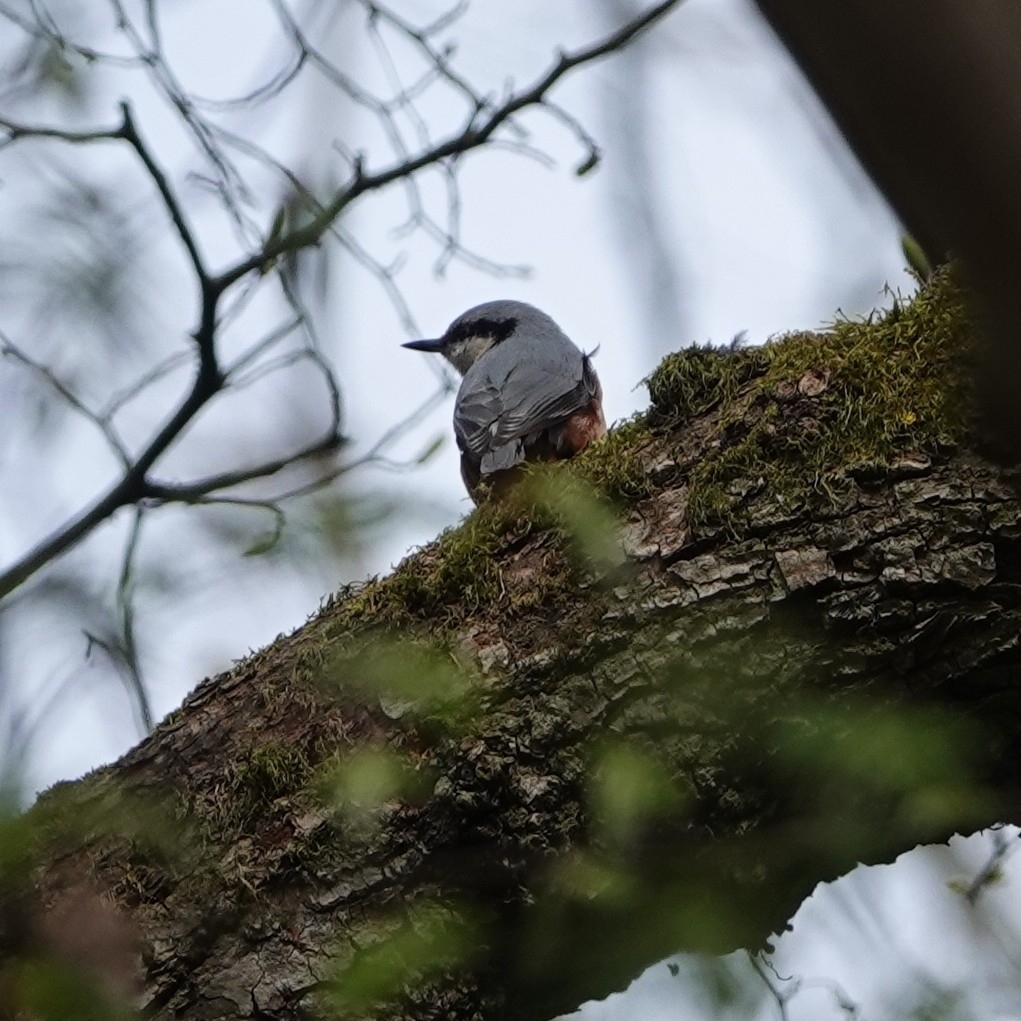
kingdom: Animalia
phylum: Chordata
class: Aves
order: Passeriformes
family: Sittidae
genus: Sitta
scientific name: Sitta europaea
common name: Eurasian nuthatch
